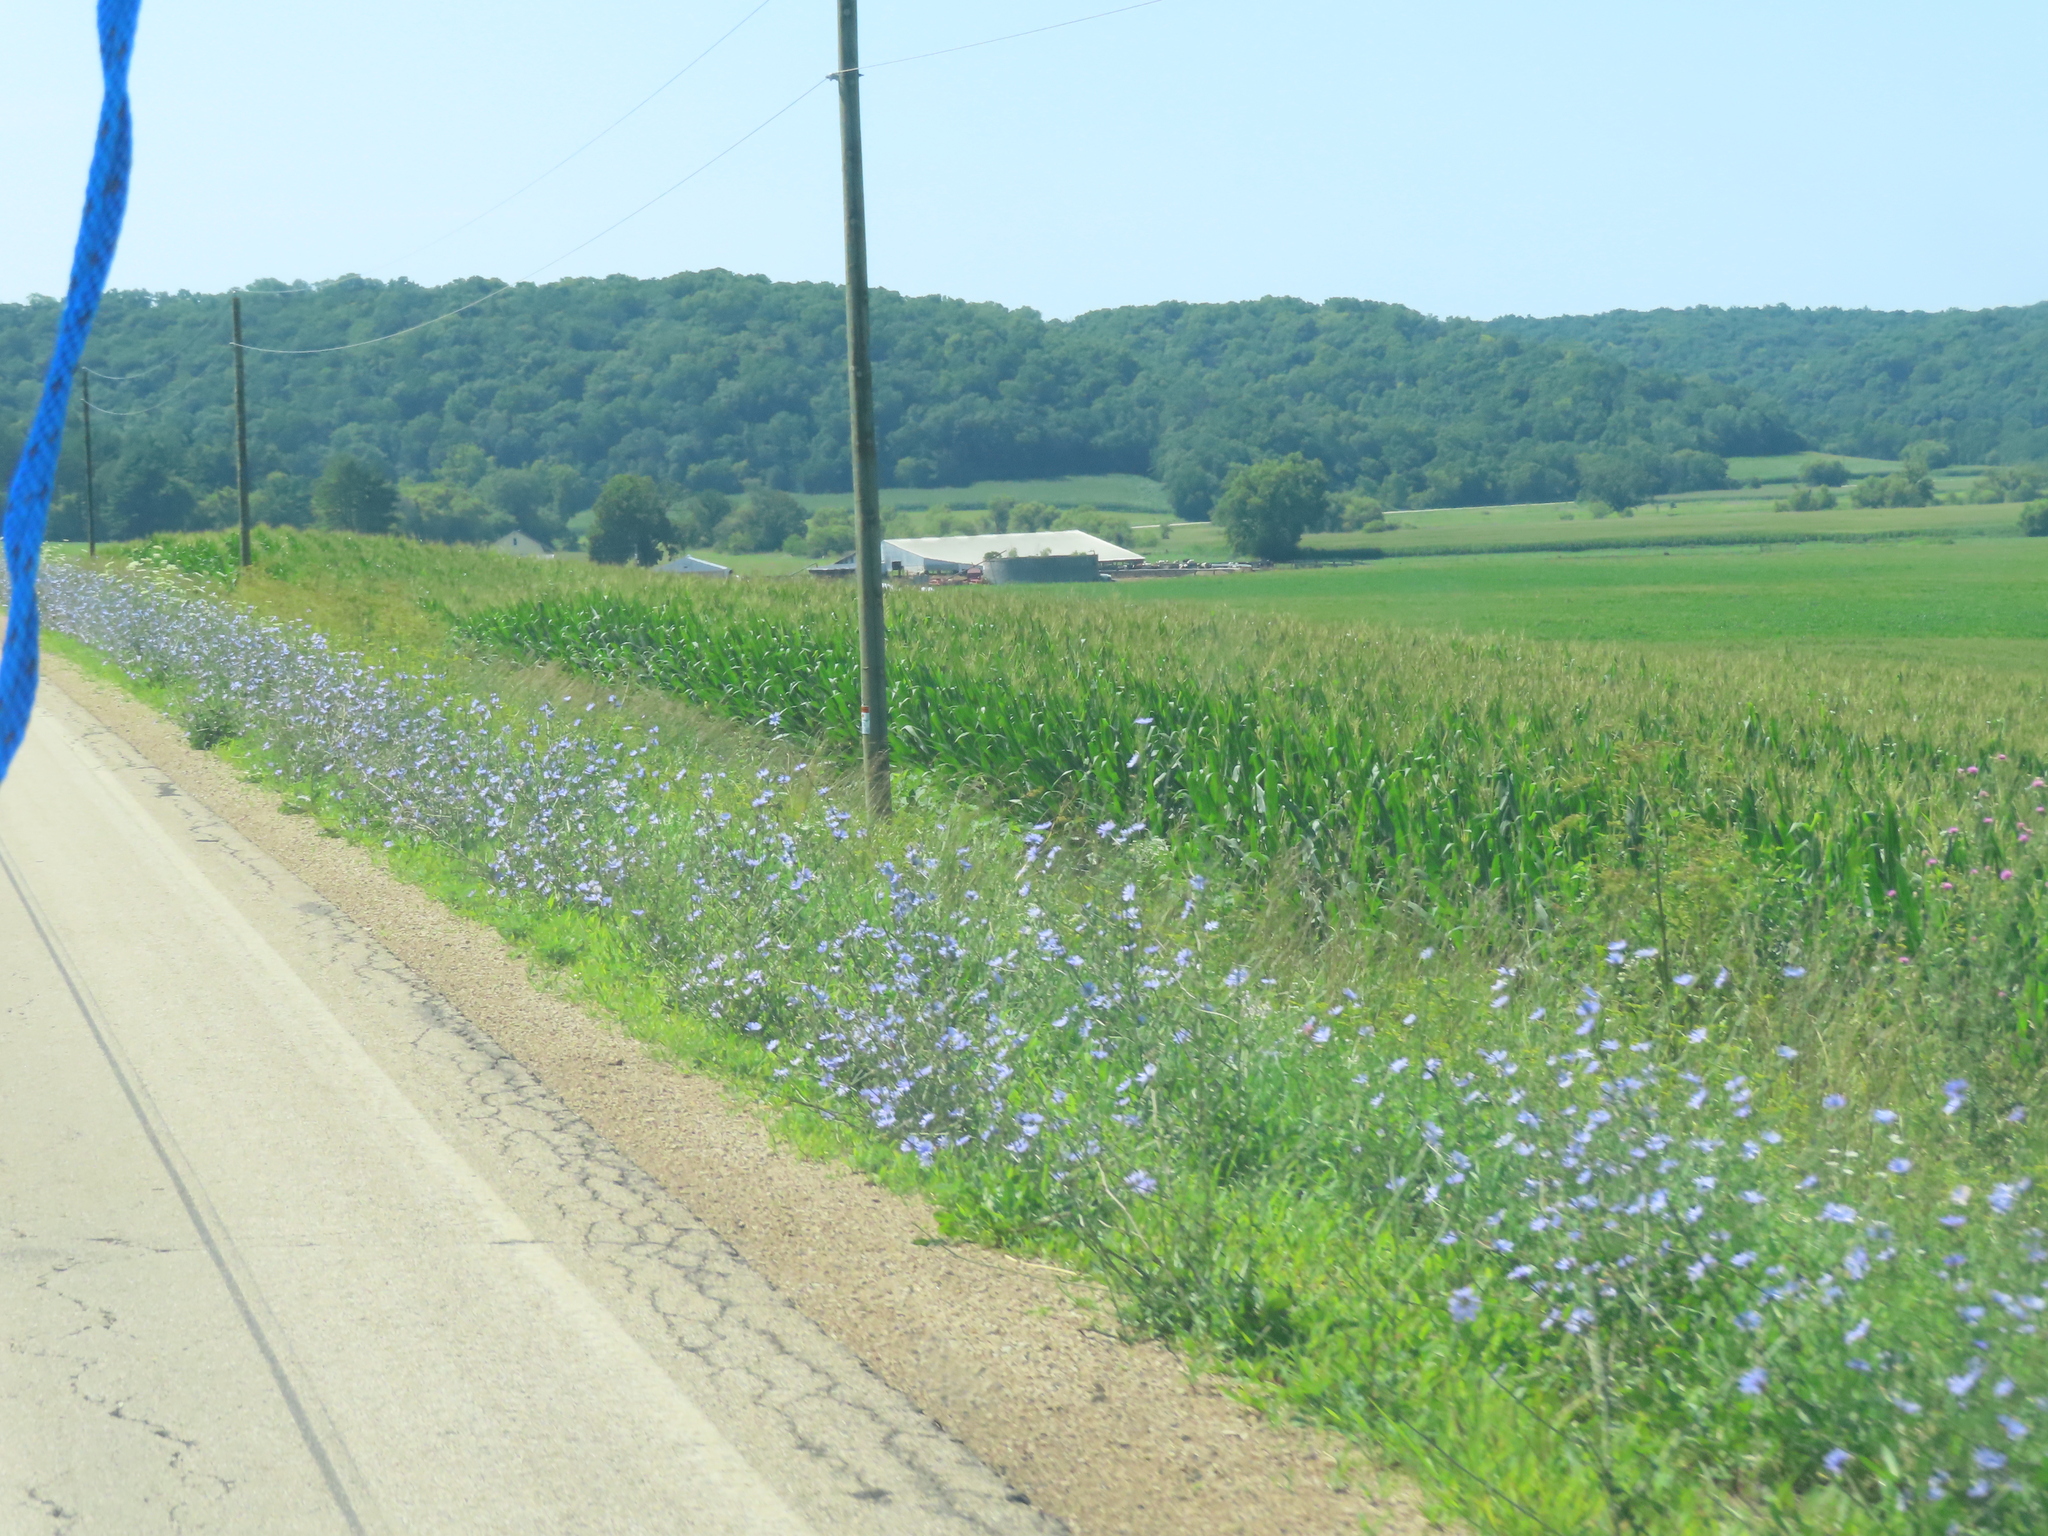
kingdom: Plantae
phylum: Tracheophyta
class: Magnoliopsida
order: Asterales
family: Asteraceae
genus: Cichorium
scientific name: Cichorium intybus
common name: Chicory
